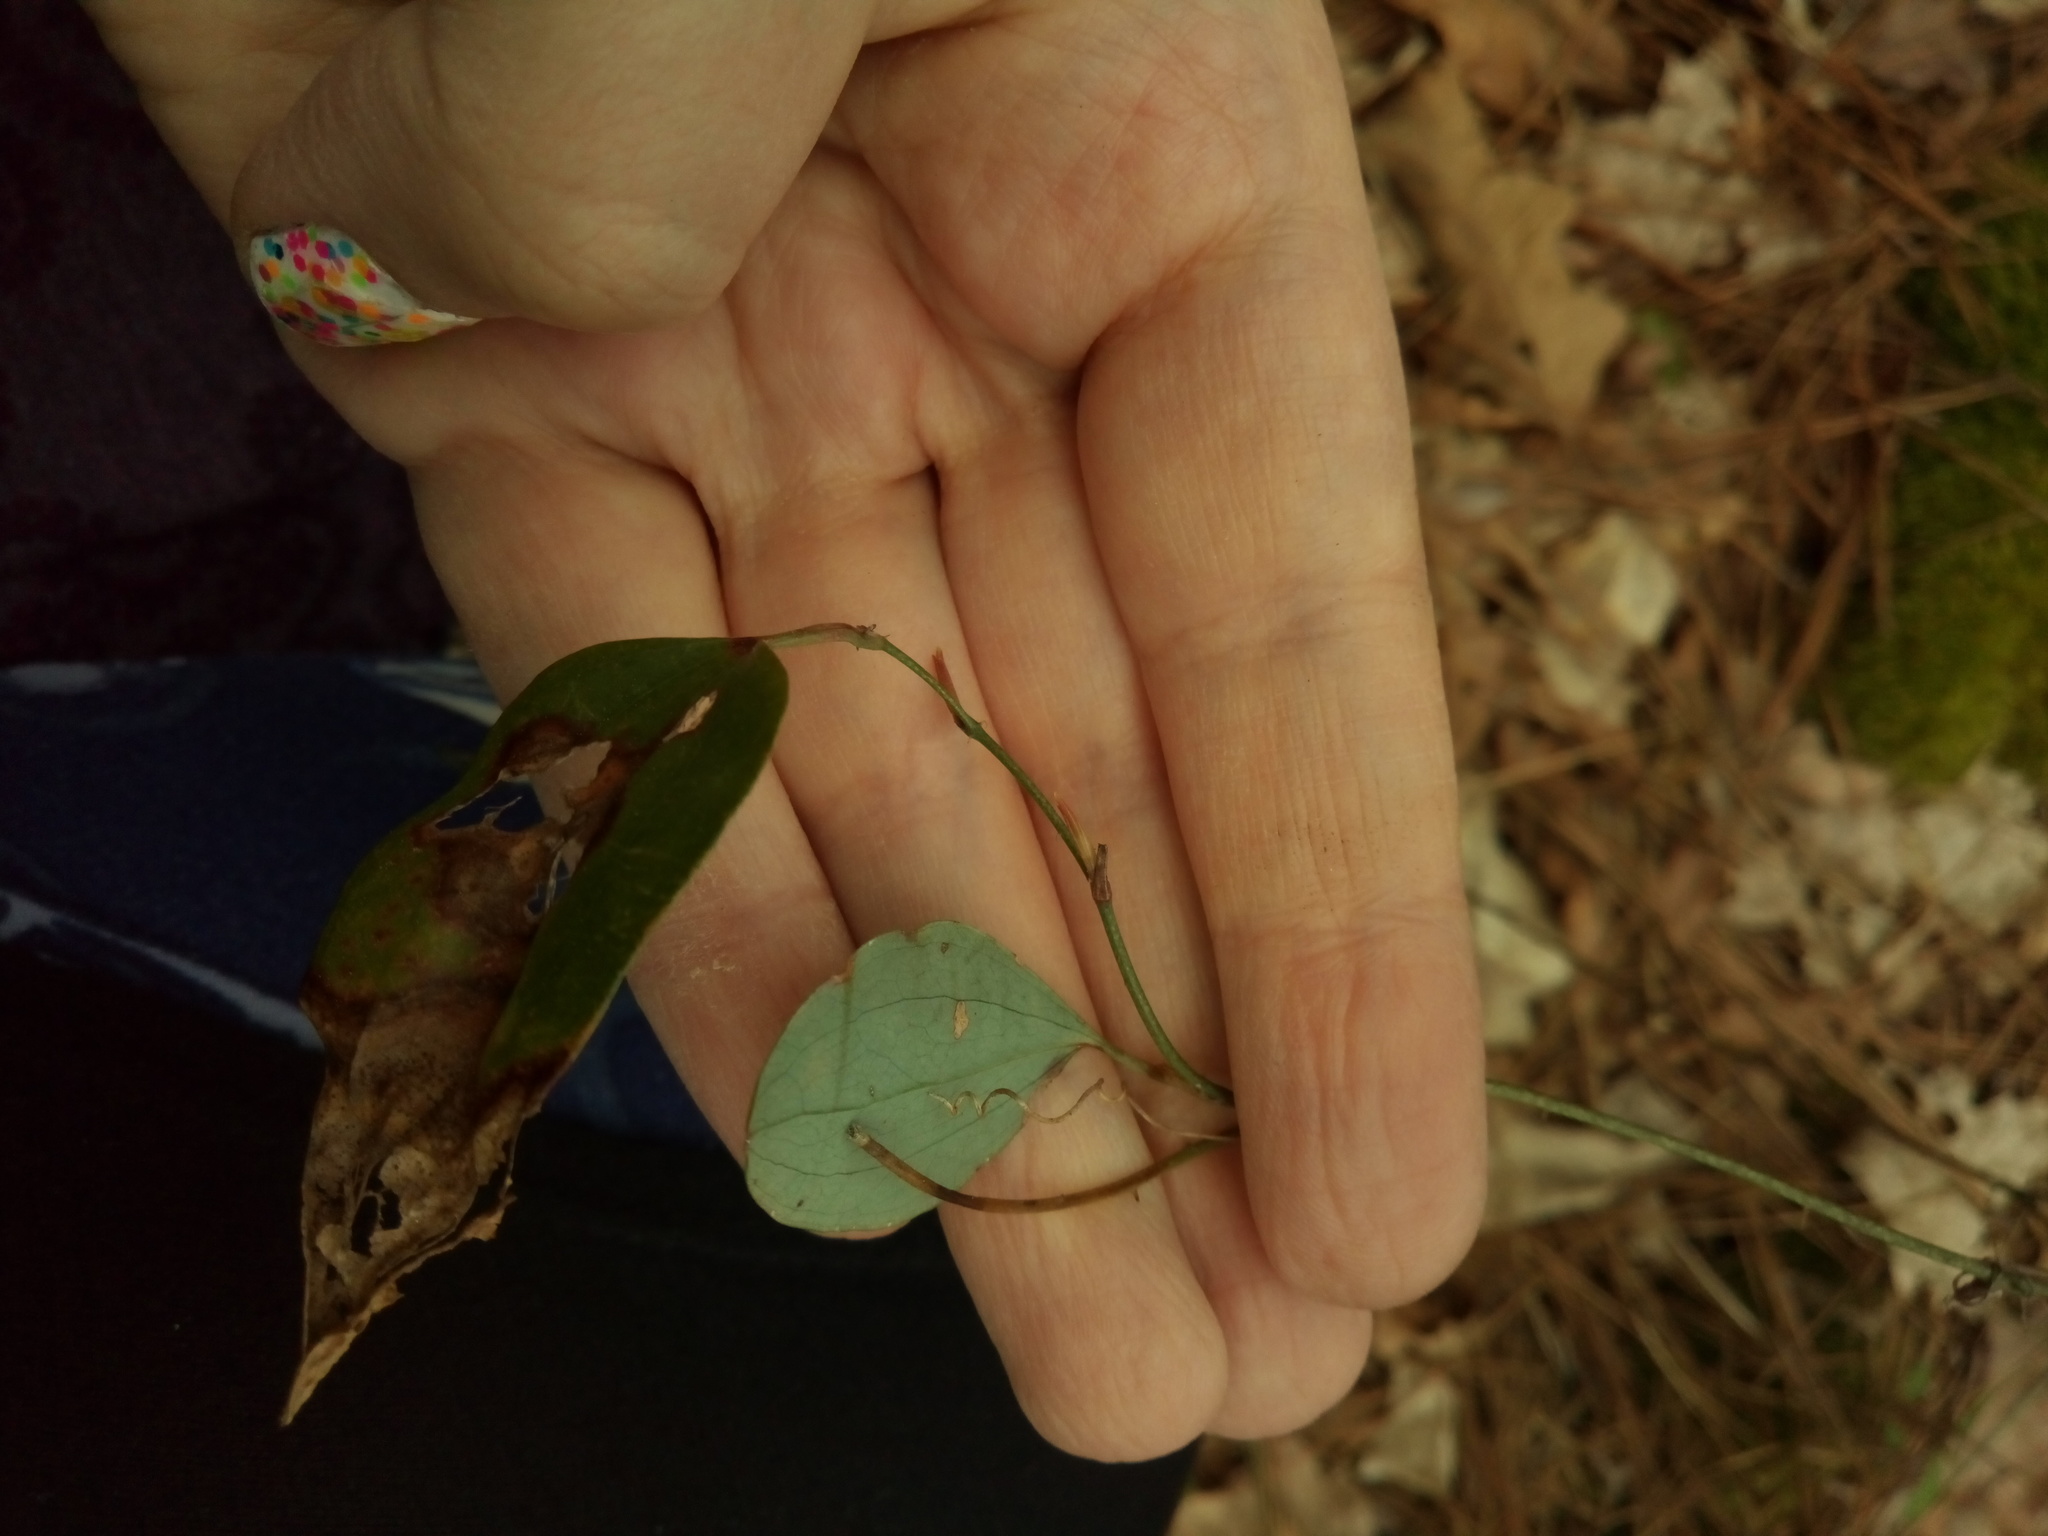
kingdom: Plantae
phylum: Tracheophyta
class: Liliopsida
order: Liliales
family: Smilacaceae
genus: Smilax
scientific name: Smilax glauca
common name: Cat greenbrier
